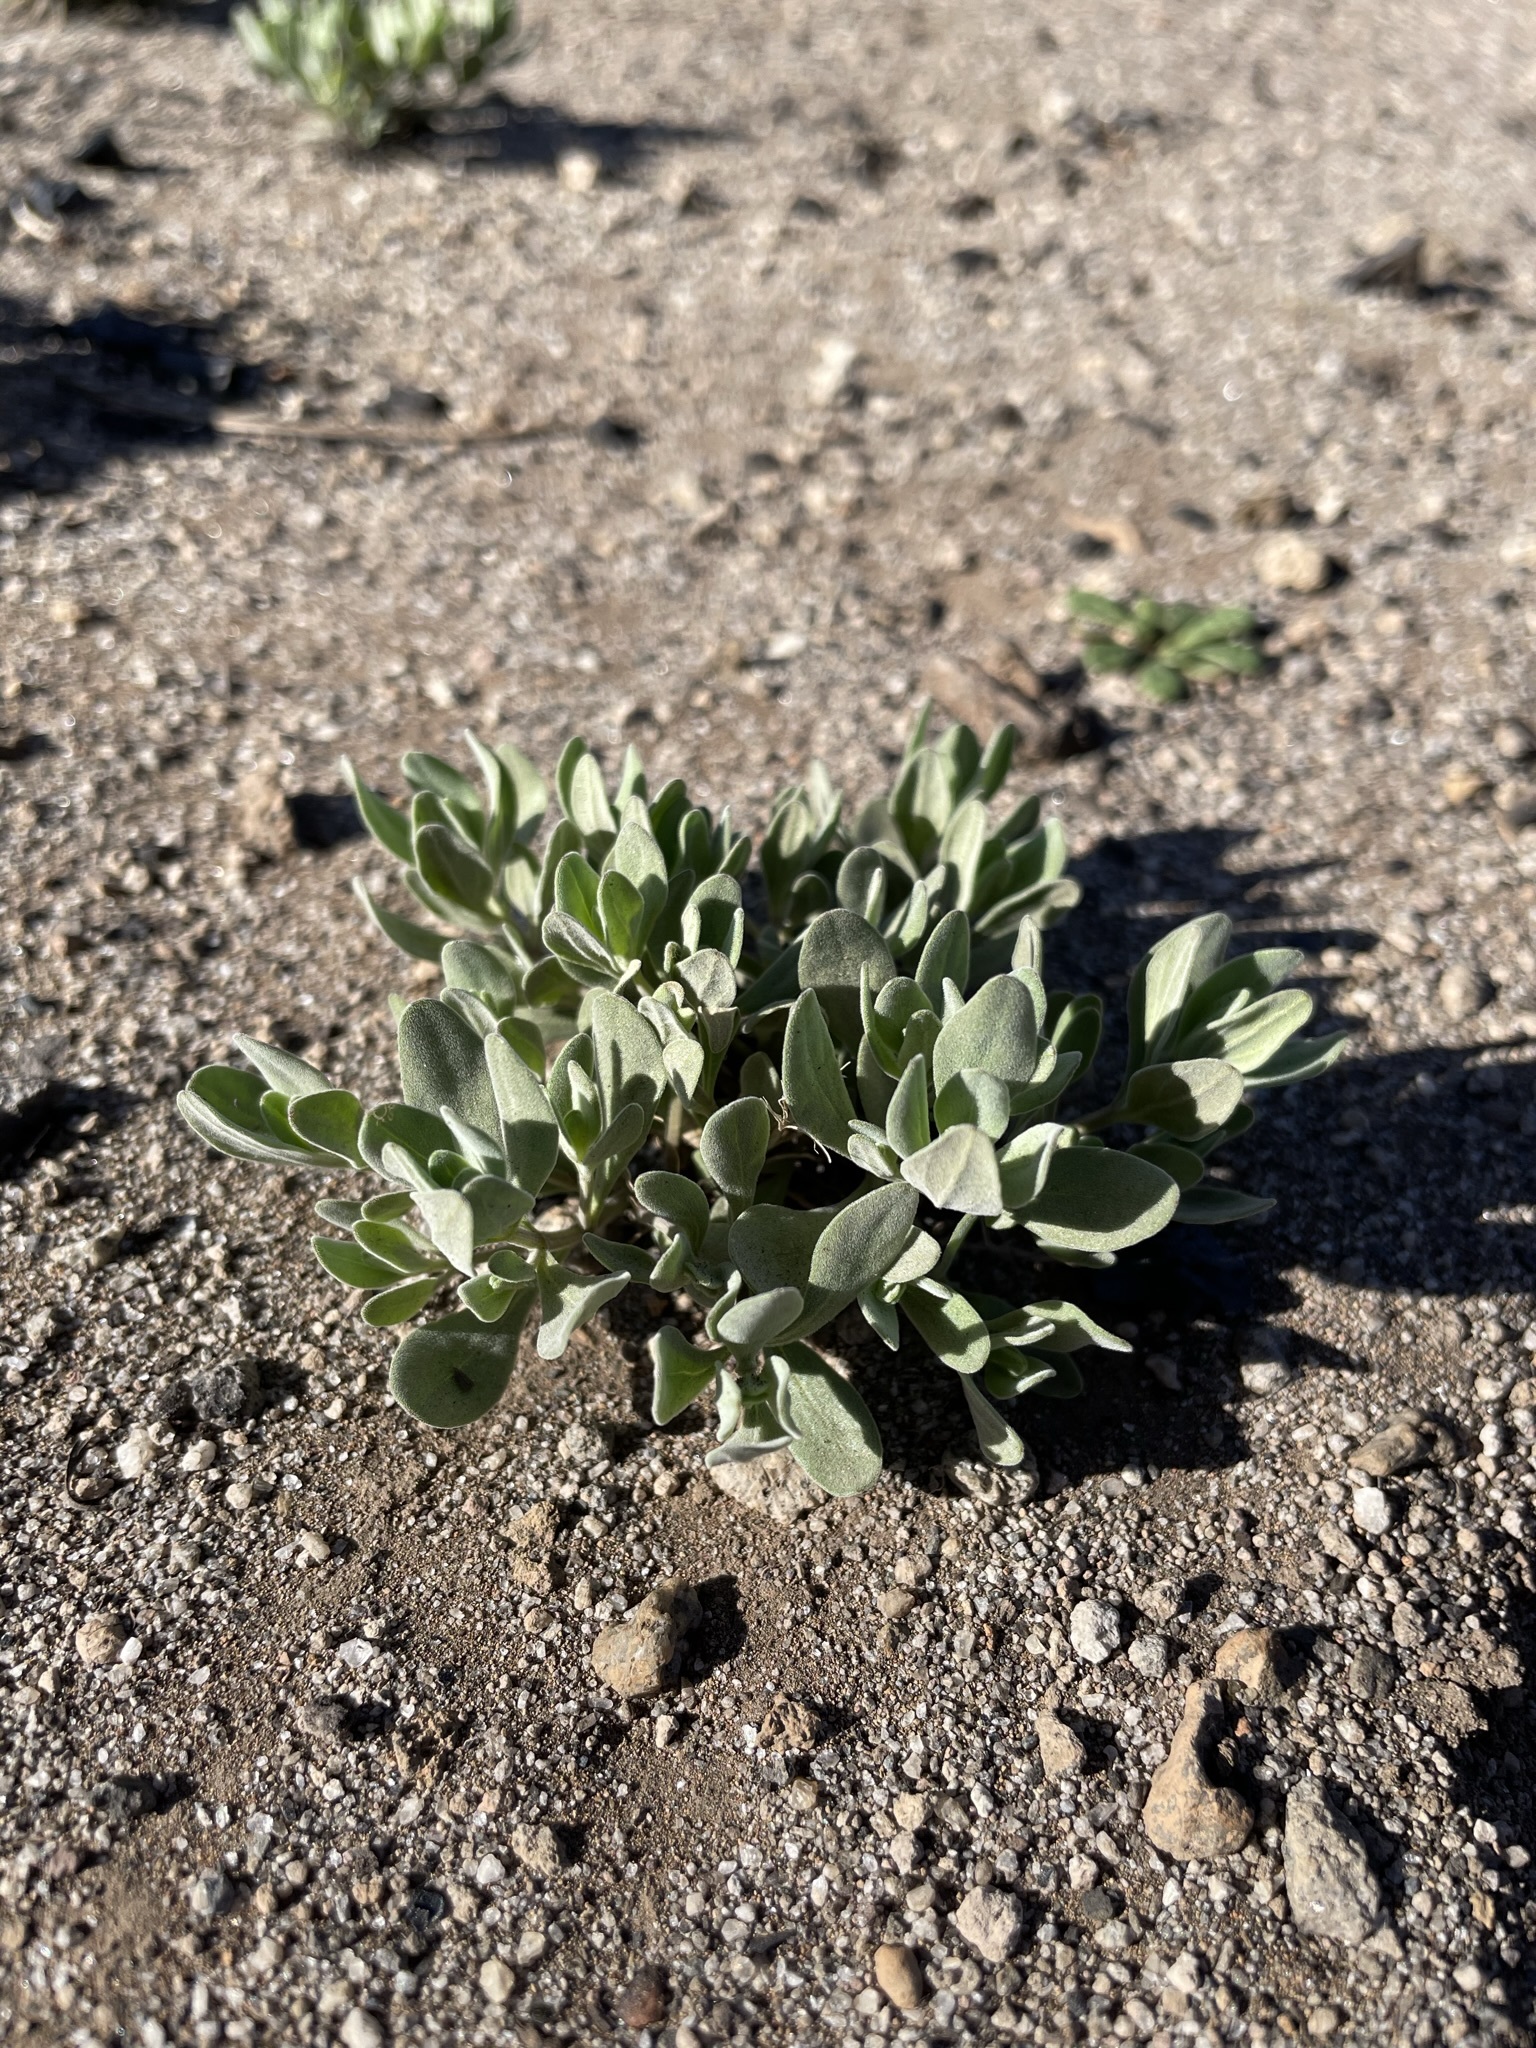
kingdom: Plantae
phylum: Tracheophyta
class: Magnoliopsida
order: Lamiales
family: Lamiaceae
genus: Scutellaria
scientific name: Scutellaria nana
